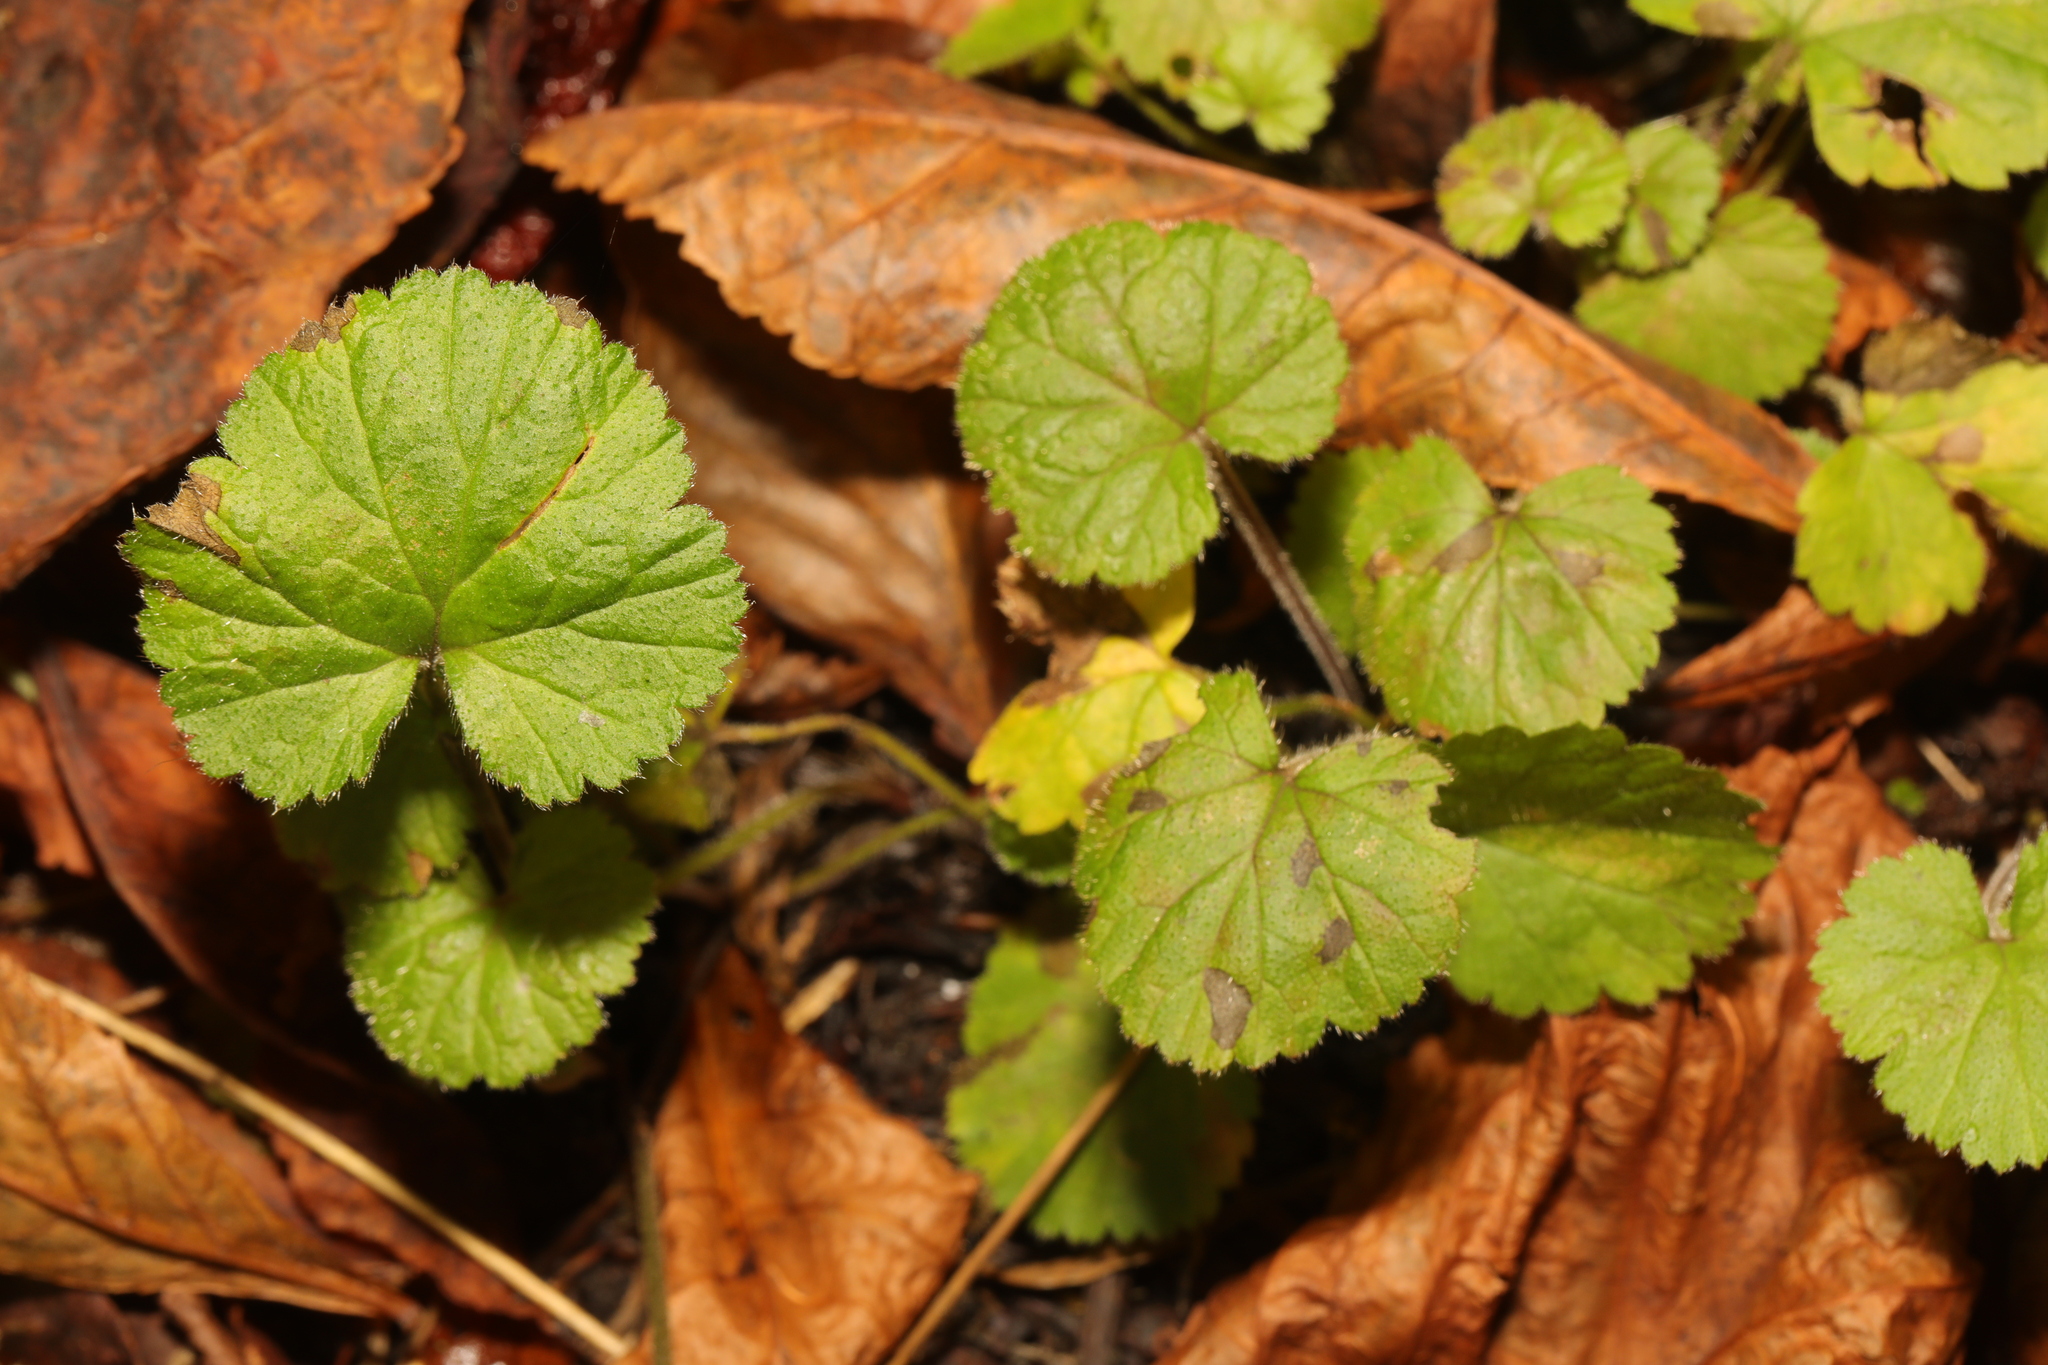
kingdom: Plantae
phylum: Tracheophyta
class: Magnoliopsida
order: Rosales
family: Rosaceae
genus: Geum
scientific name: Geum urbanum
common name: Wood avens
